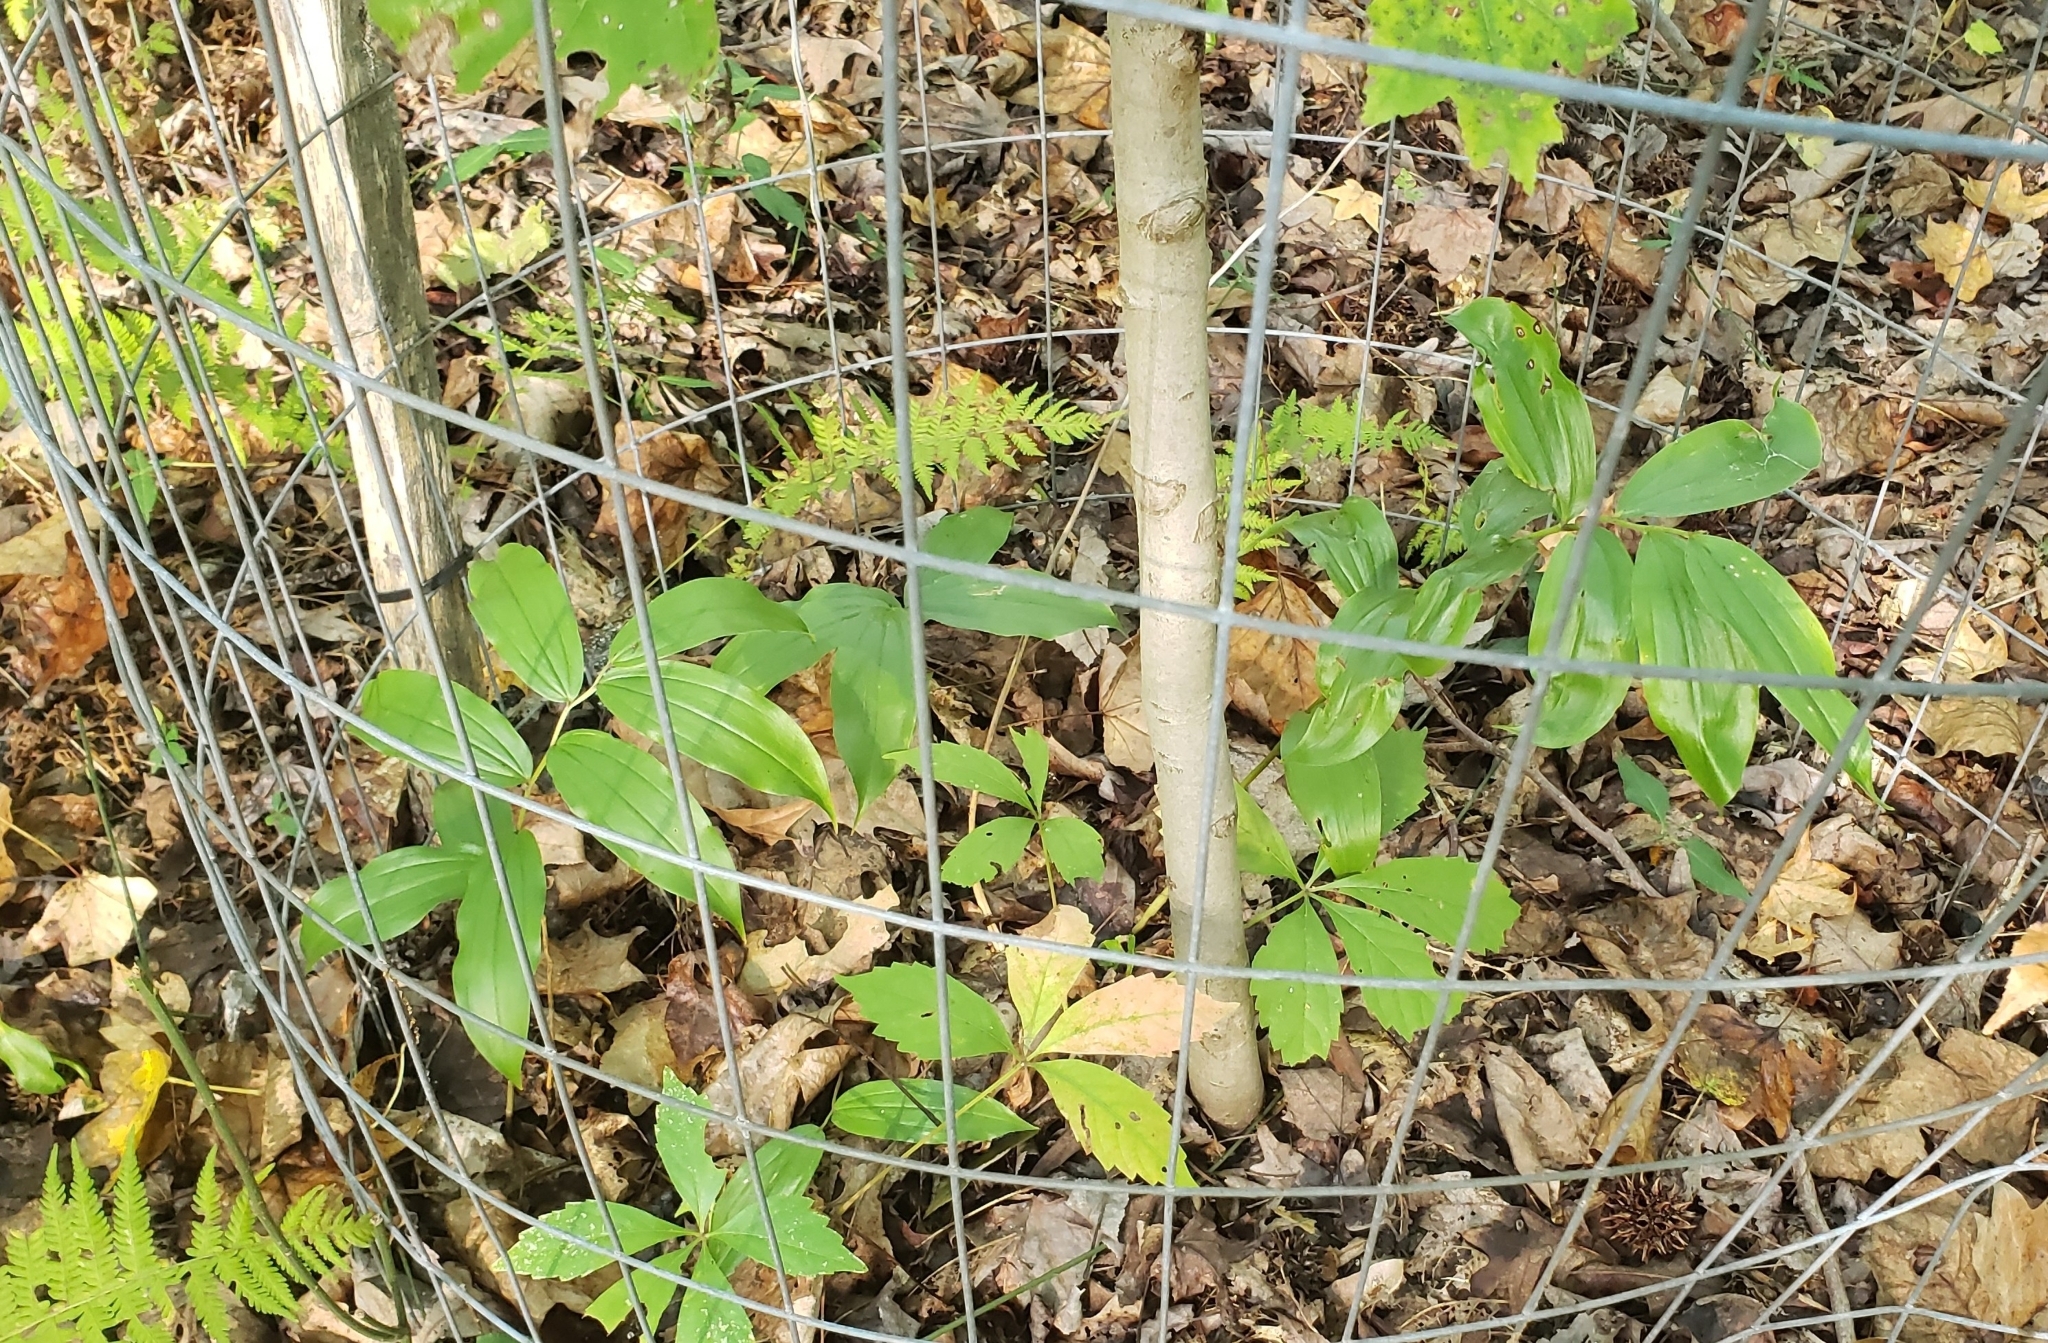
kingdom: Plantae
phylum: Tracheophyta
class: Liliopsida
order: Asparagales
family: Asparagaceae
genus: Maianthemum
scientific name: Maianthemum racemosum
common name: False spikenard
